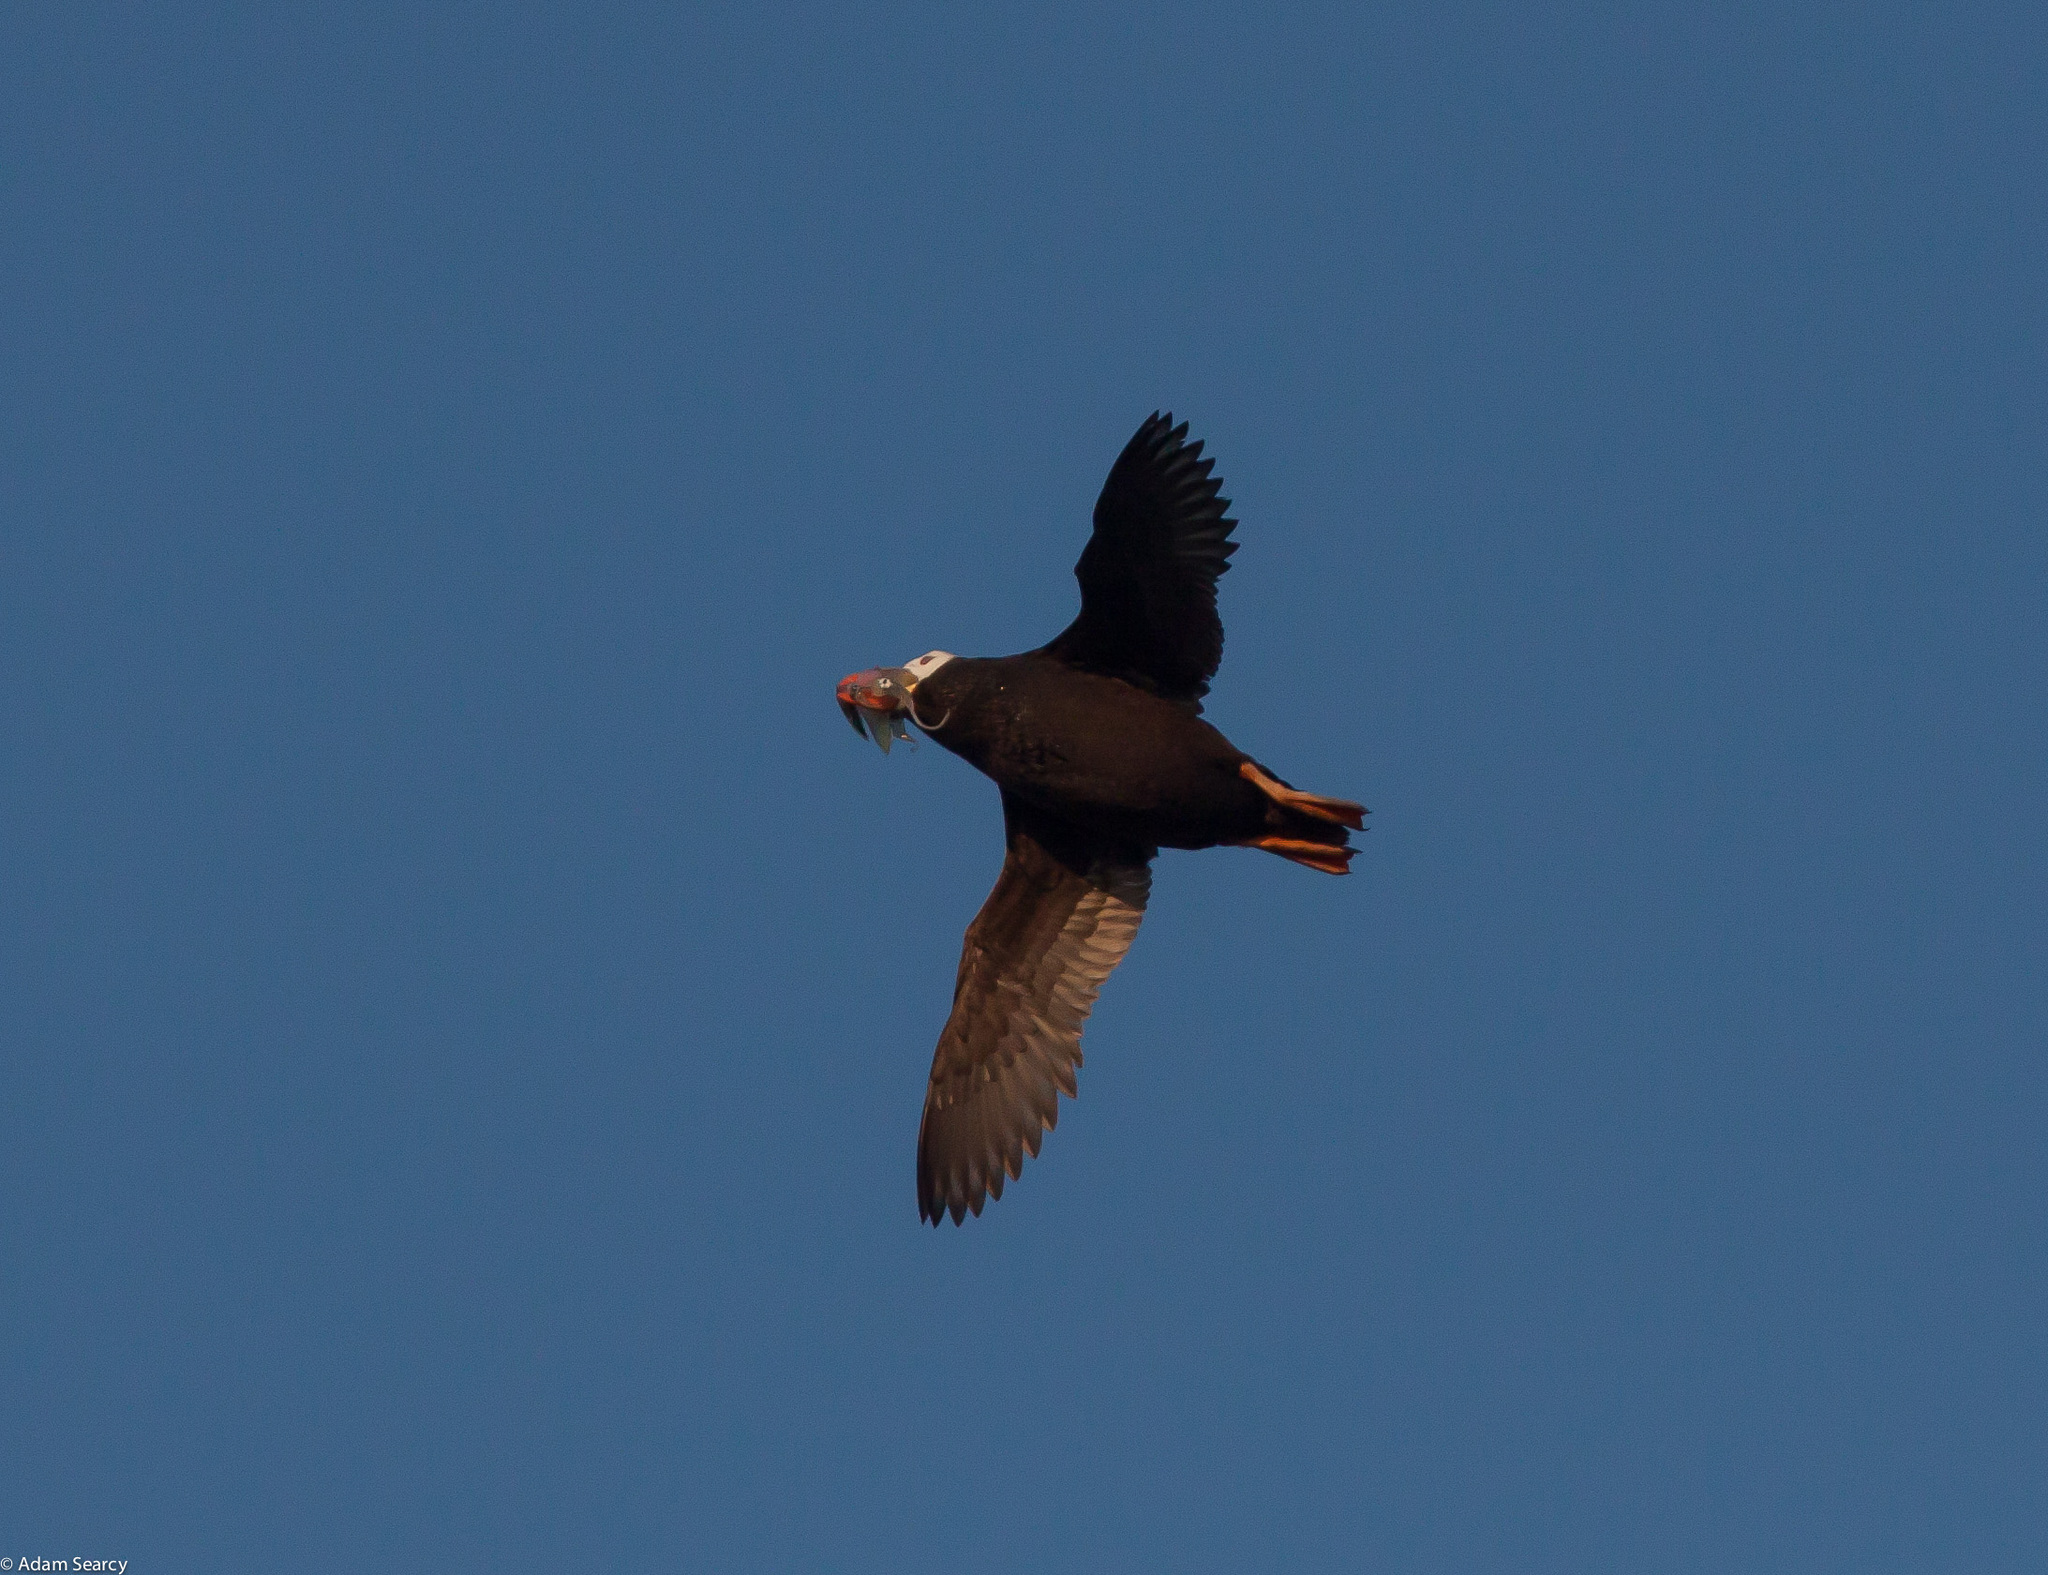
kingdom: Animalia
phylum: Chordata
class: Aves
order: Charadriiformes
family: Alcidae
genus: Fratercula
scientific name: Fratercula cirrhata
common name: Tufted puffin
